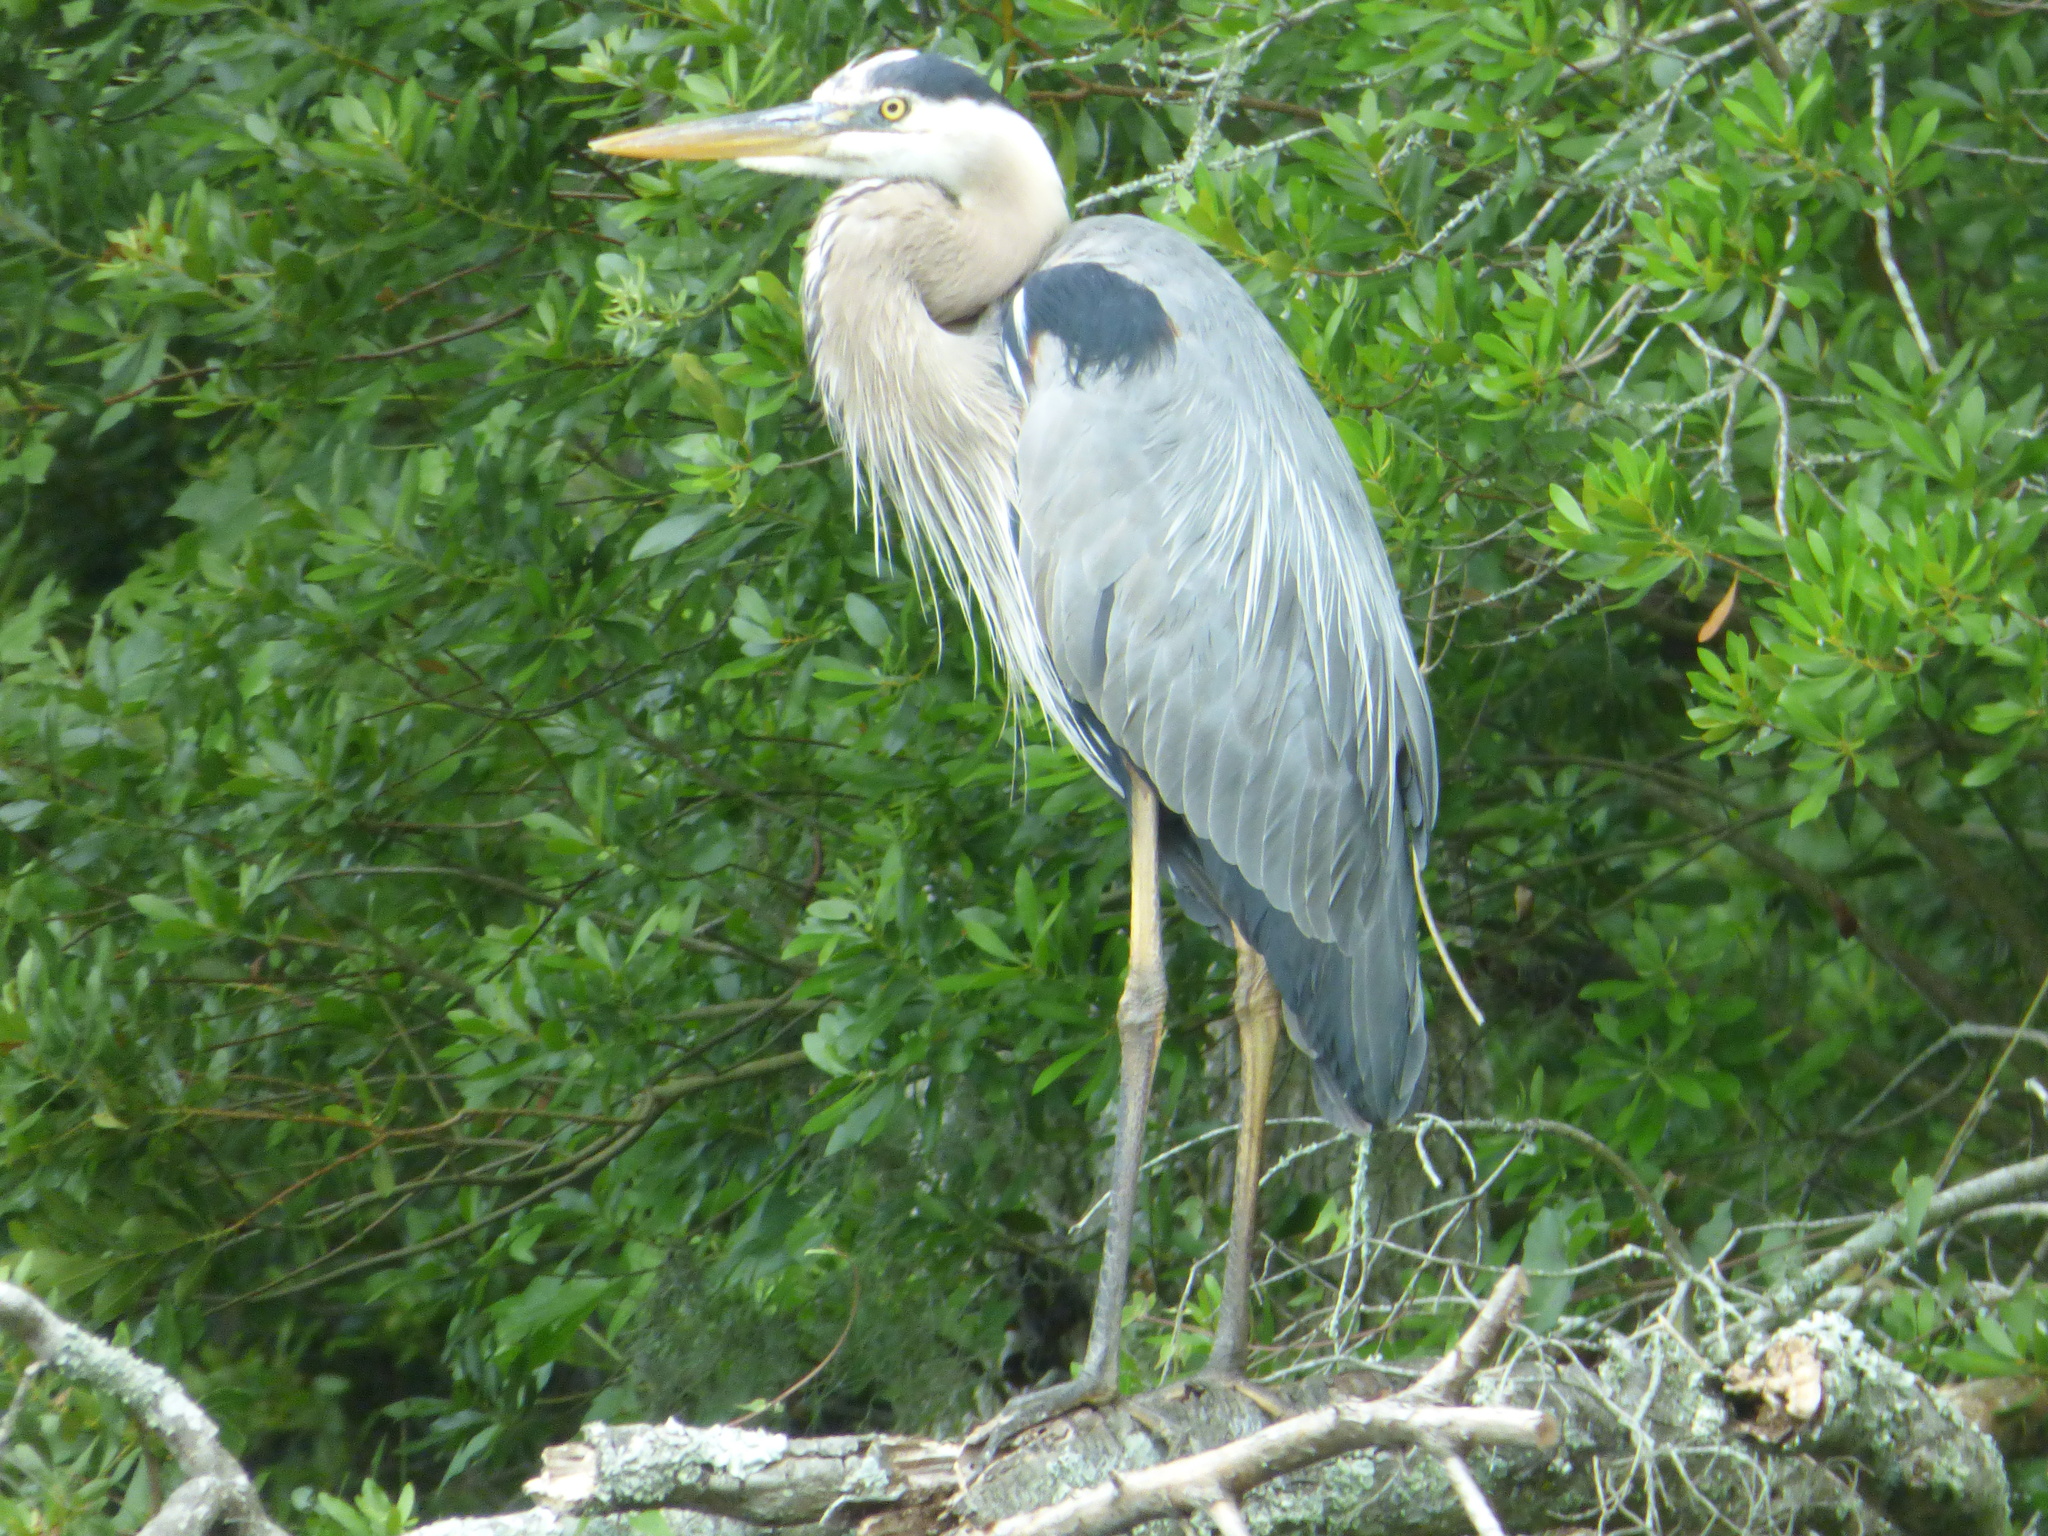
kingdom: Animalia
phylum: Chordata
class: Aves
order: Pelecaniformes
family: Ardeidae
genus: Ardea
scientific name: Ardea herodias
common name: Great blue heron
